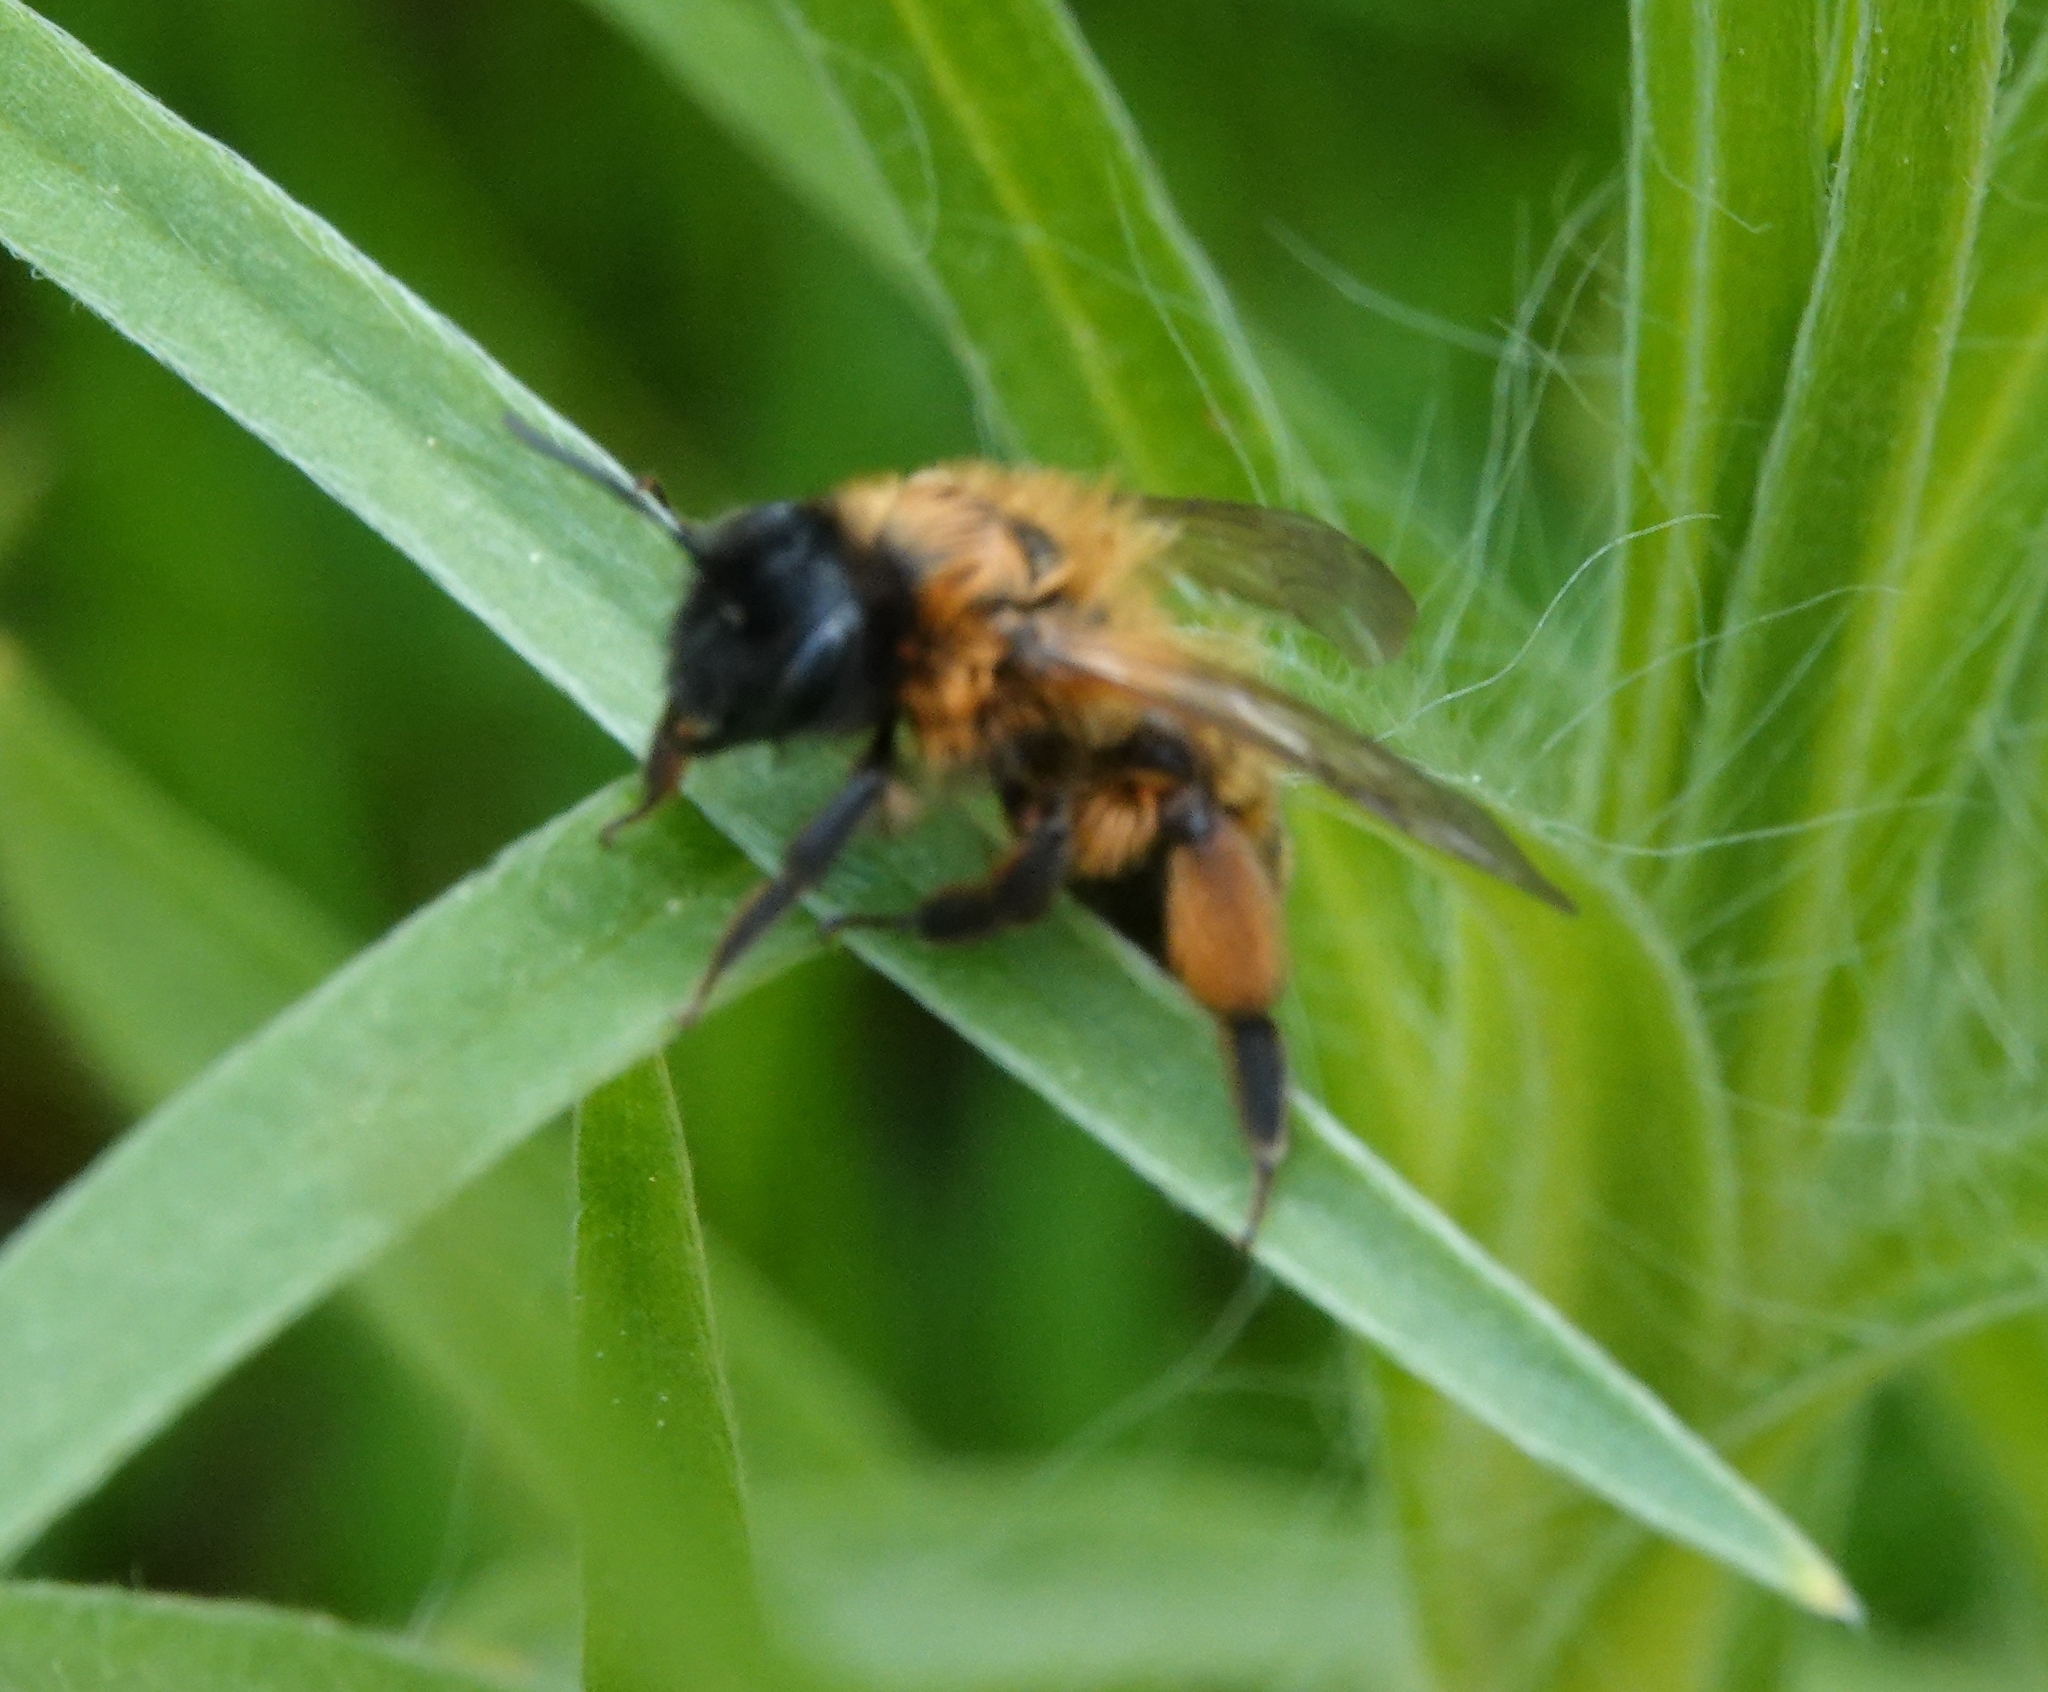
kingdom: Animalia
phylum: Arthropoda
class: Insecta
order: Hymenoptera
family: Andrenidae
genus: Andrena
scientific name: Andrena nigroaenea
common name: Buffish mining bee
